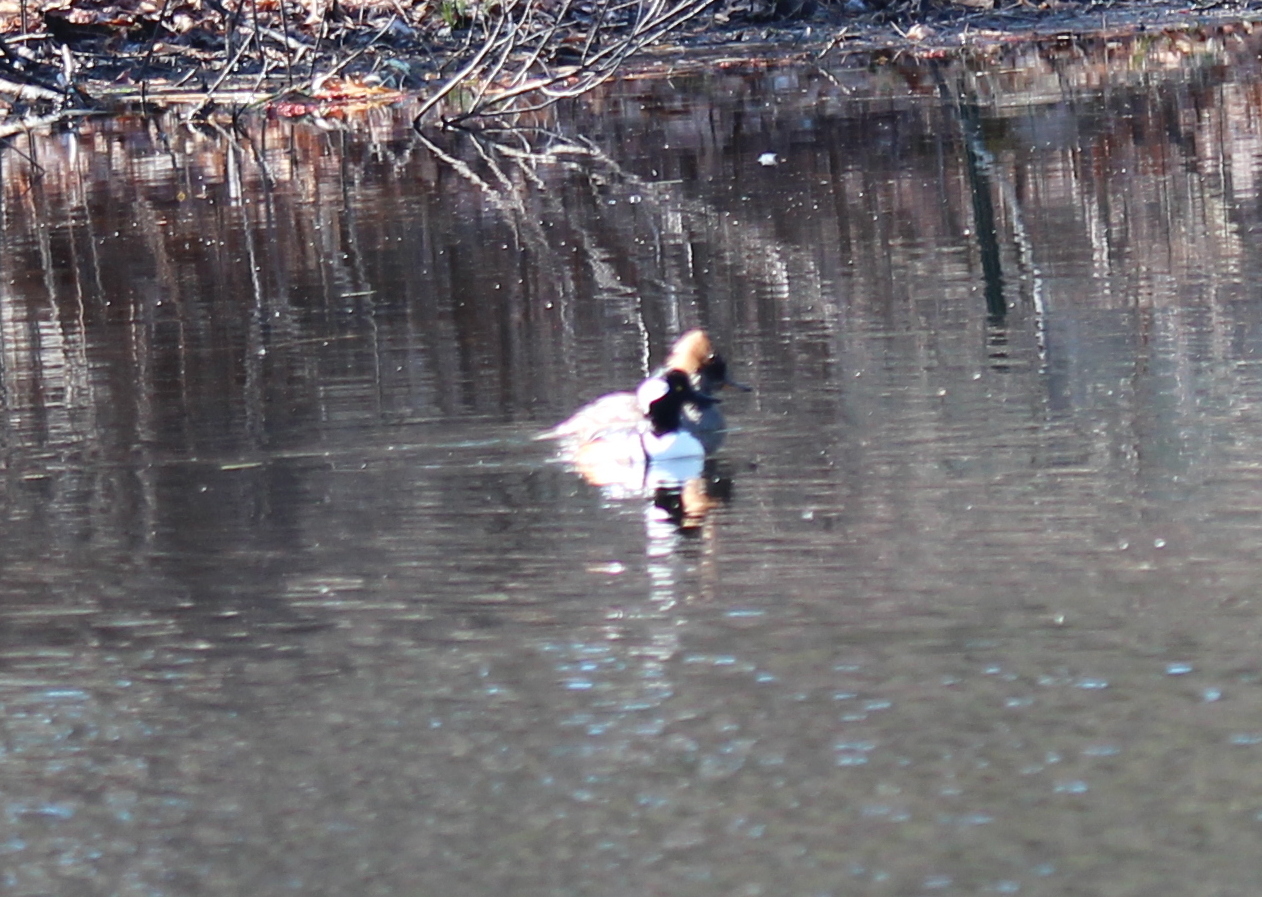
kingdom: Animalia
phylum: Chordata
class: Aves
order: Anseriformes
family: Anatidae
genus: Lophodytes
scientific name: Lophodytes cucullatus
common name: Hooded merganser
